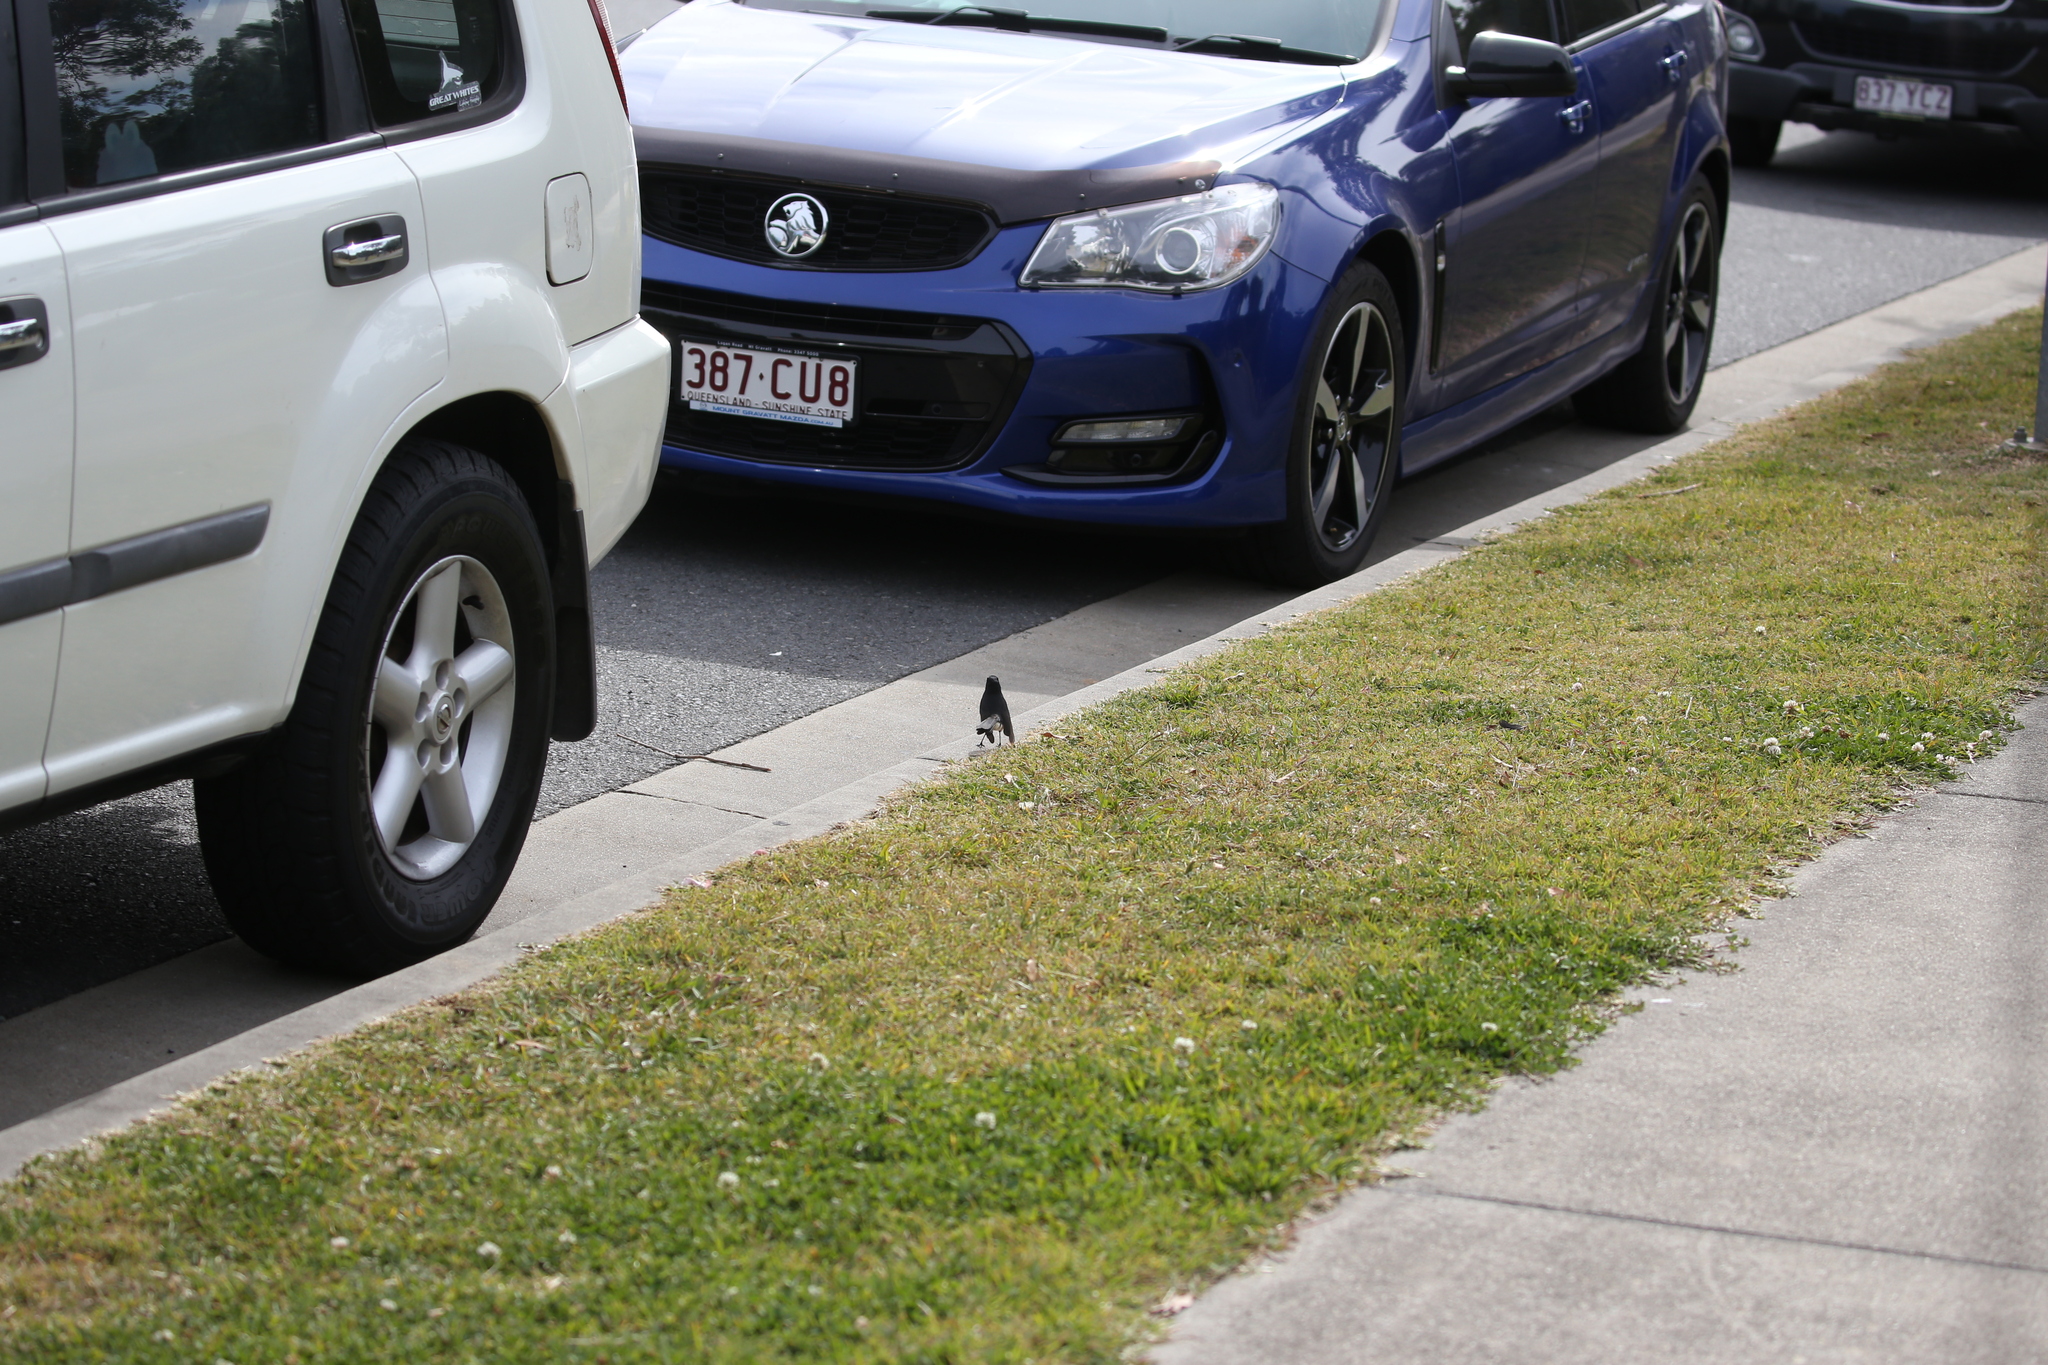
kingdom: Animalia
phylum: Chordata
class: Aves
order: Passeriformes
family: Rhipiduridae
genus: Rhipidura
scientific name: Rhipidura leucophrys
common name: Willie wagtail
